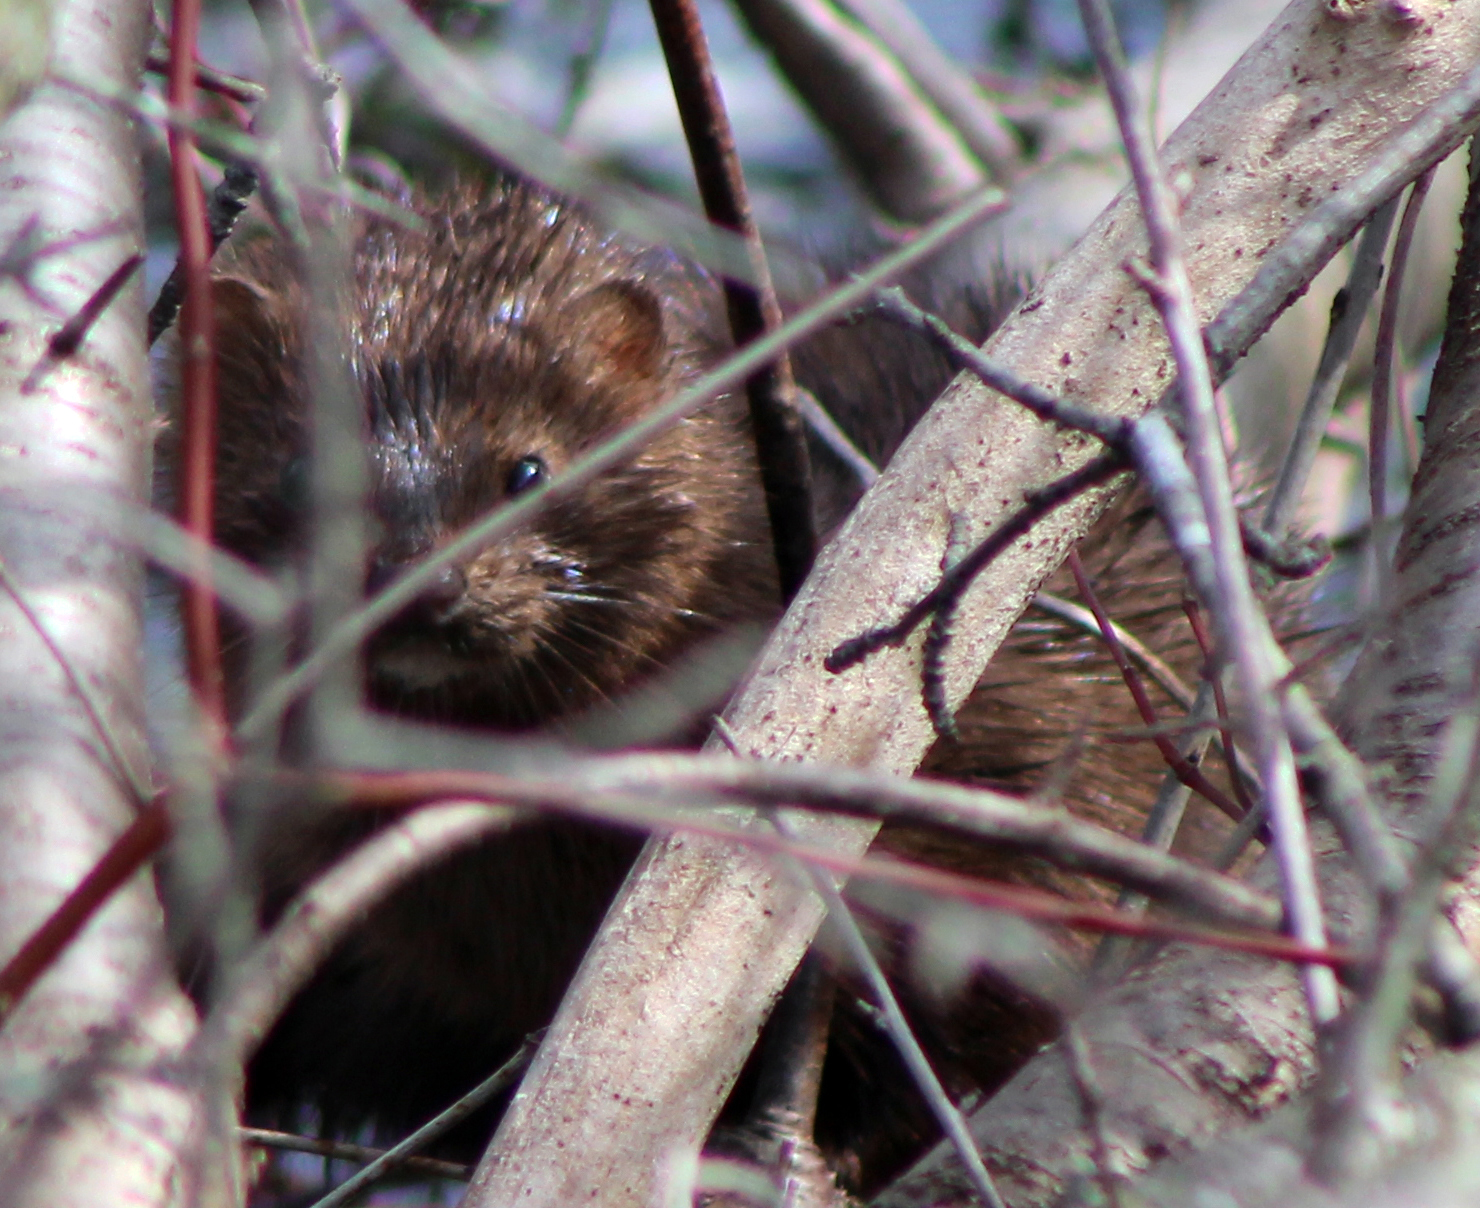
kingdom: Animalia
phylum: Chordata
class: Mammalia
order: Carnivora
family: Mustelidae
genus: Mustela
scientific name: Mustela
